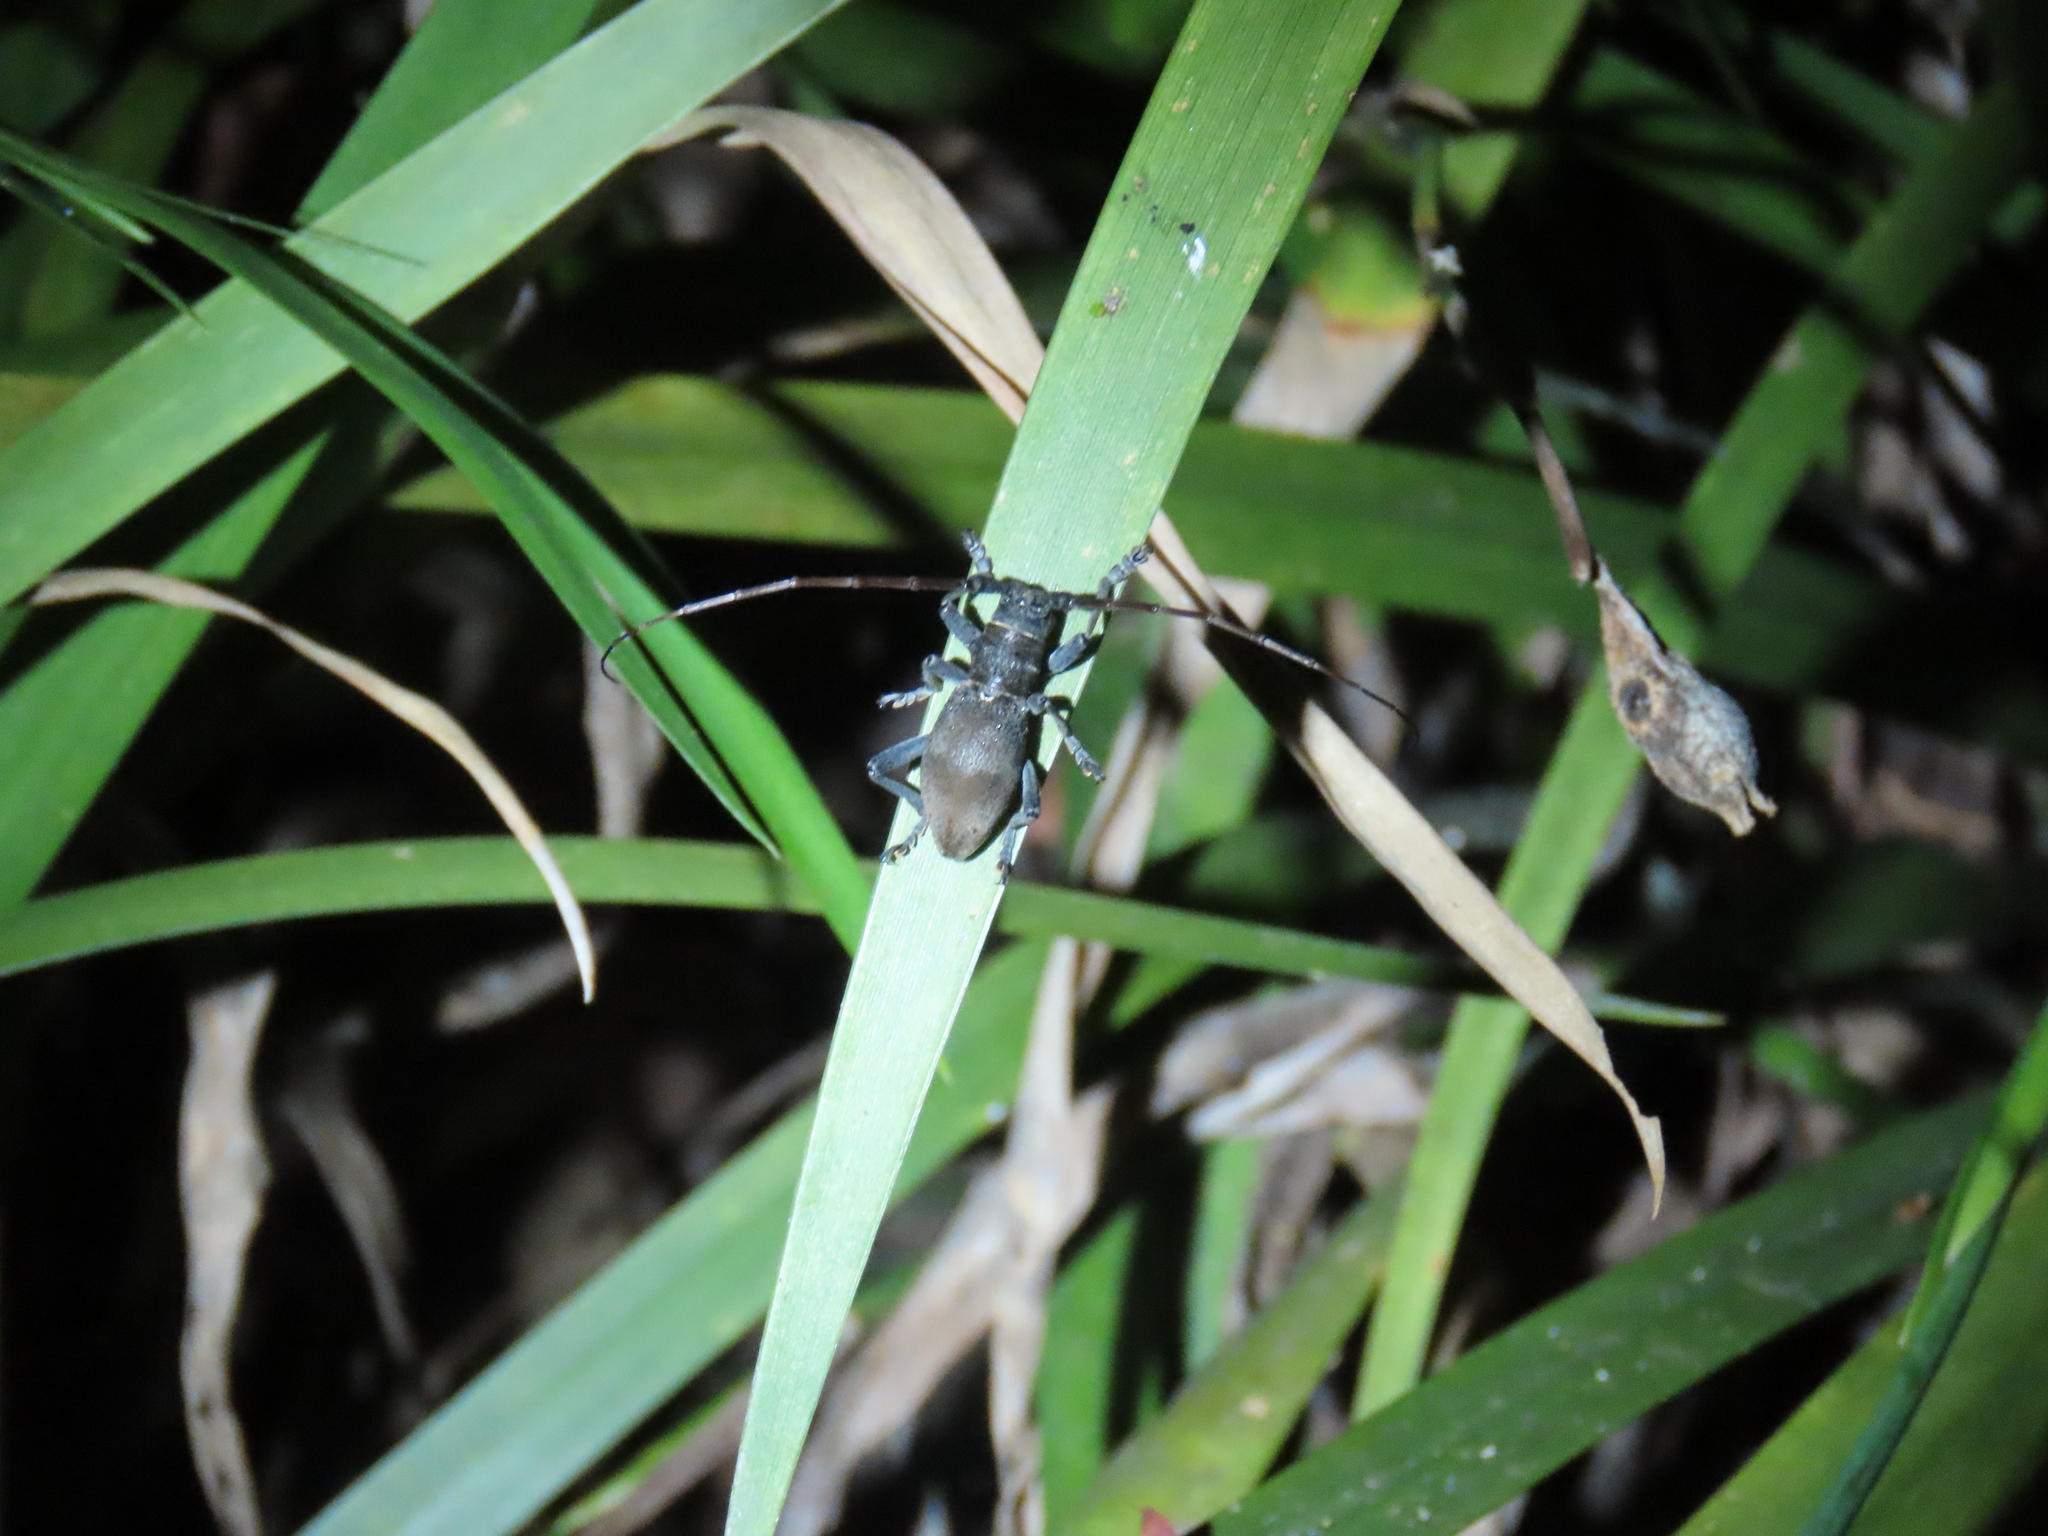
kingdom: Animalia
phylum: Arthropoda
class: Insecta
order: Coleoptera
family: Cerambycidae
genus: Parabrimus
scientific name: Parabrimus alboscutellatus
